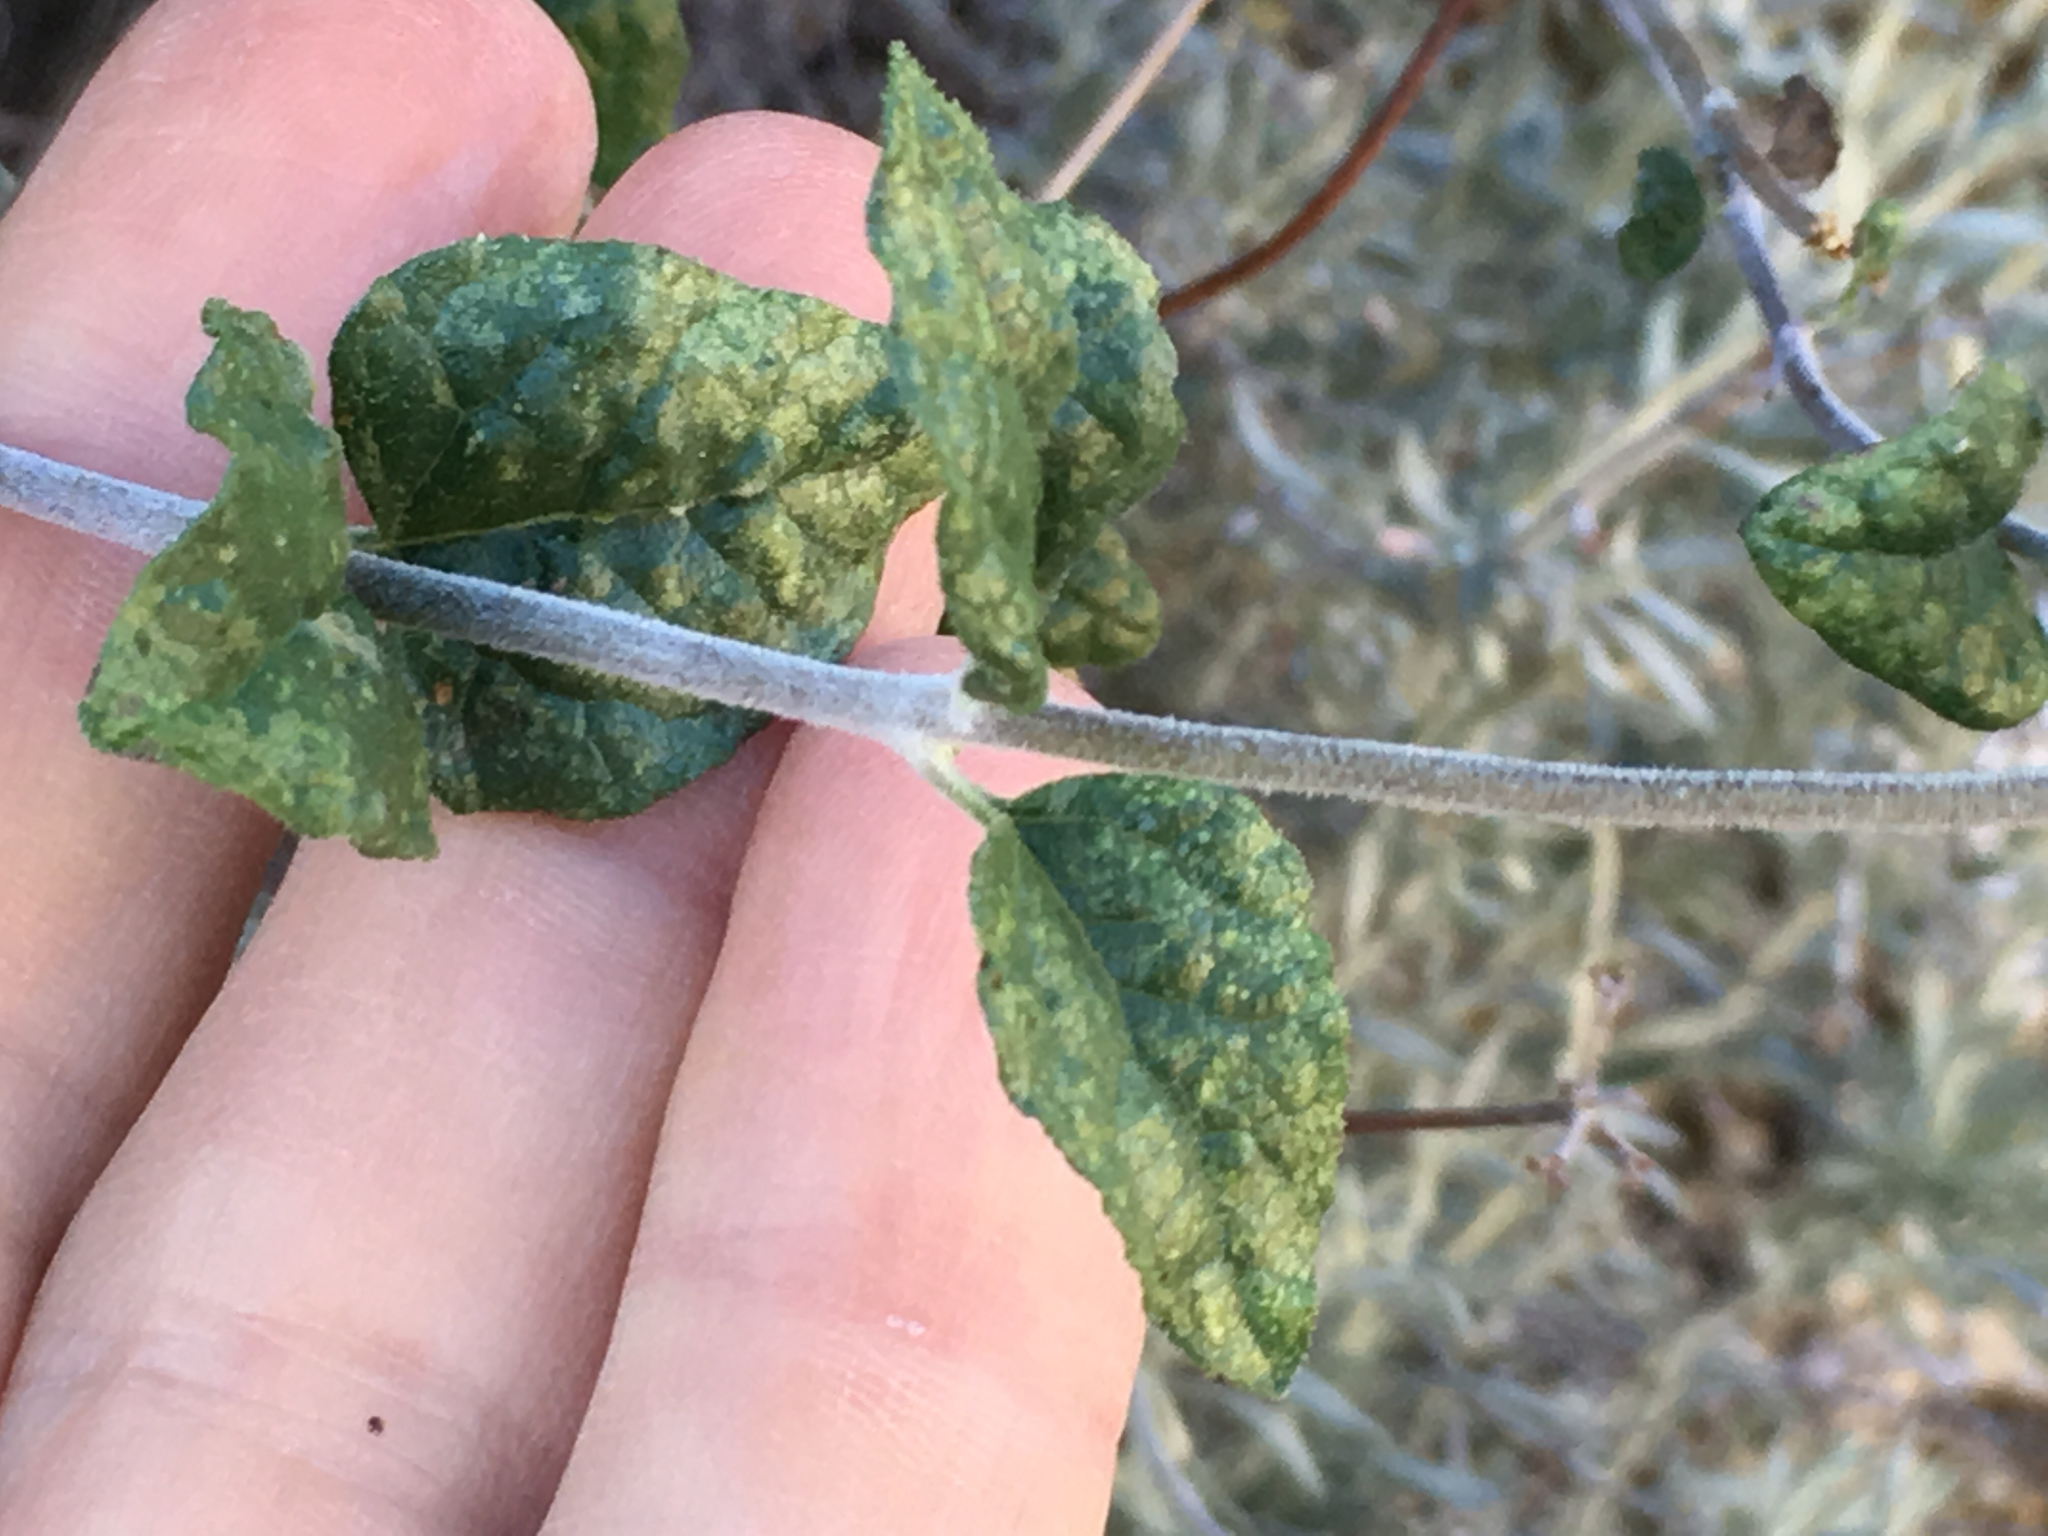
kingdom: Plantae
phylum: Tracheophyta
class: Magnoliopsida
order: Asterales
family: Asteraceae
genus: Bahiopsis
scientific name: Bahiopsis parishii
